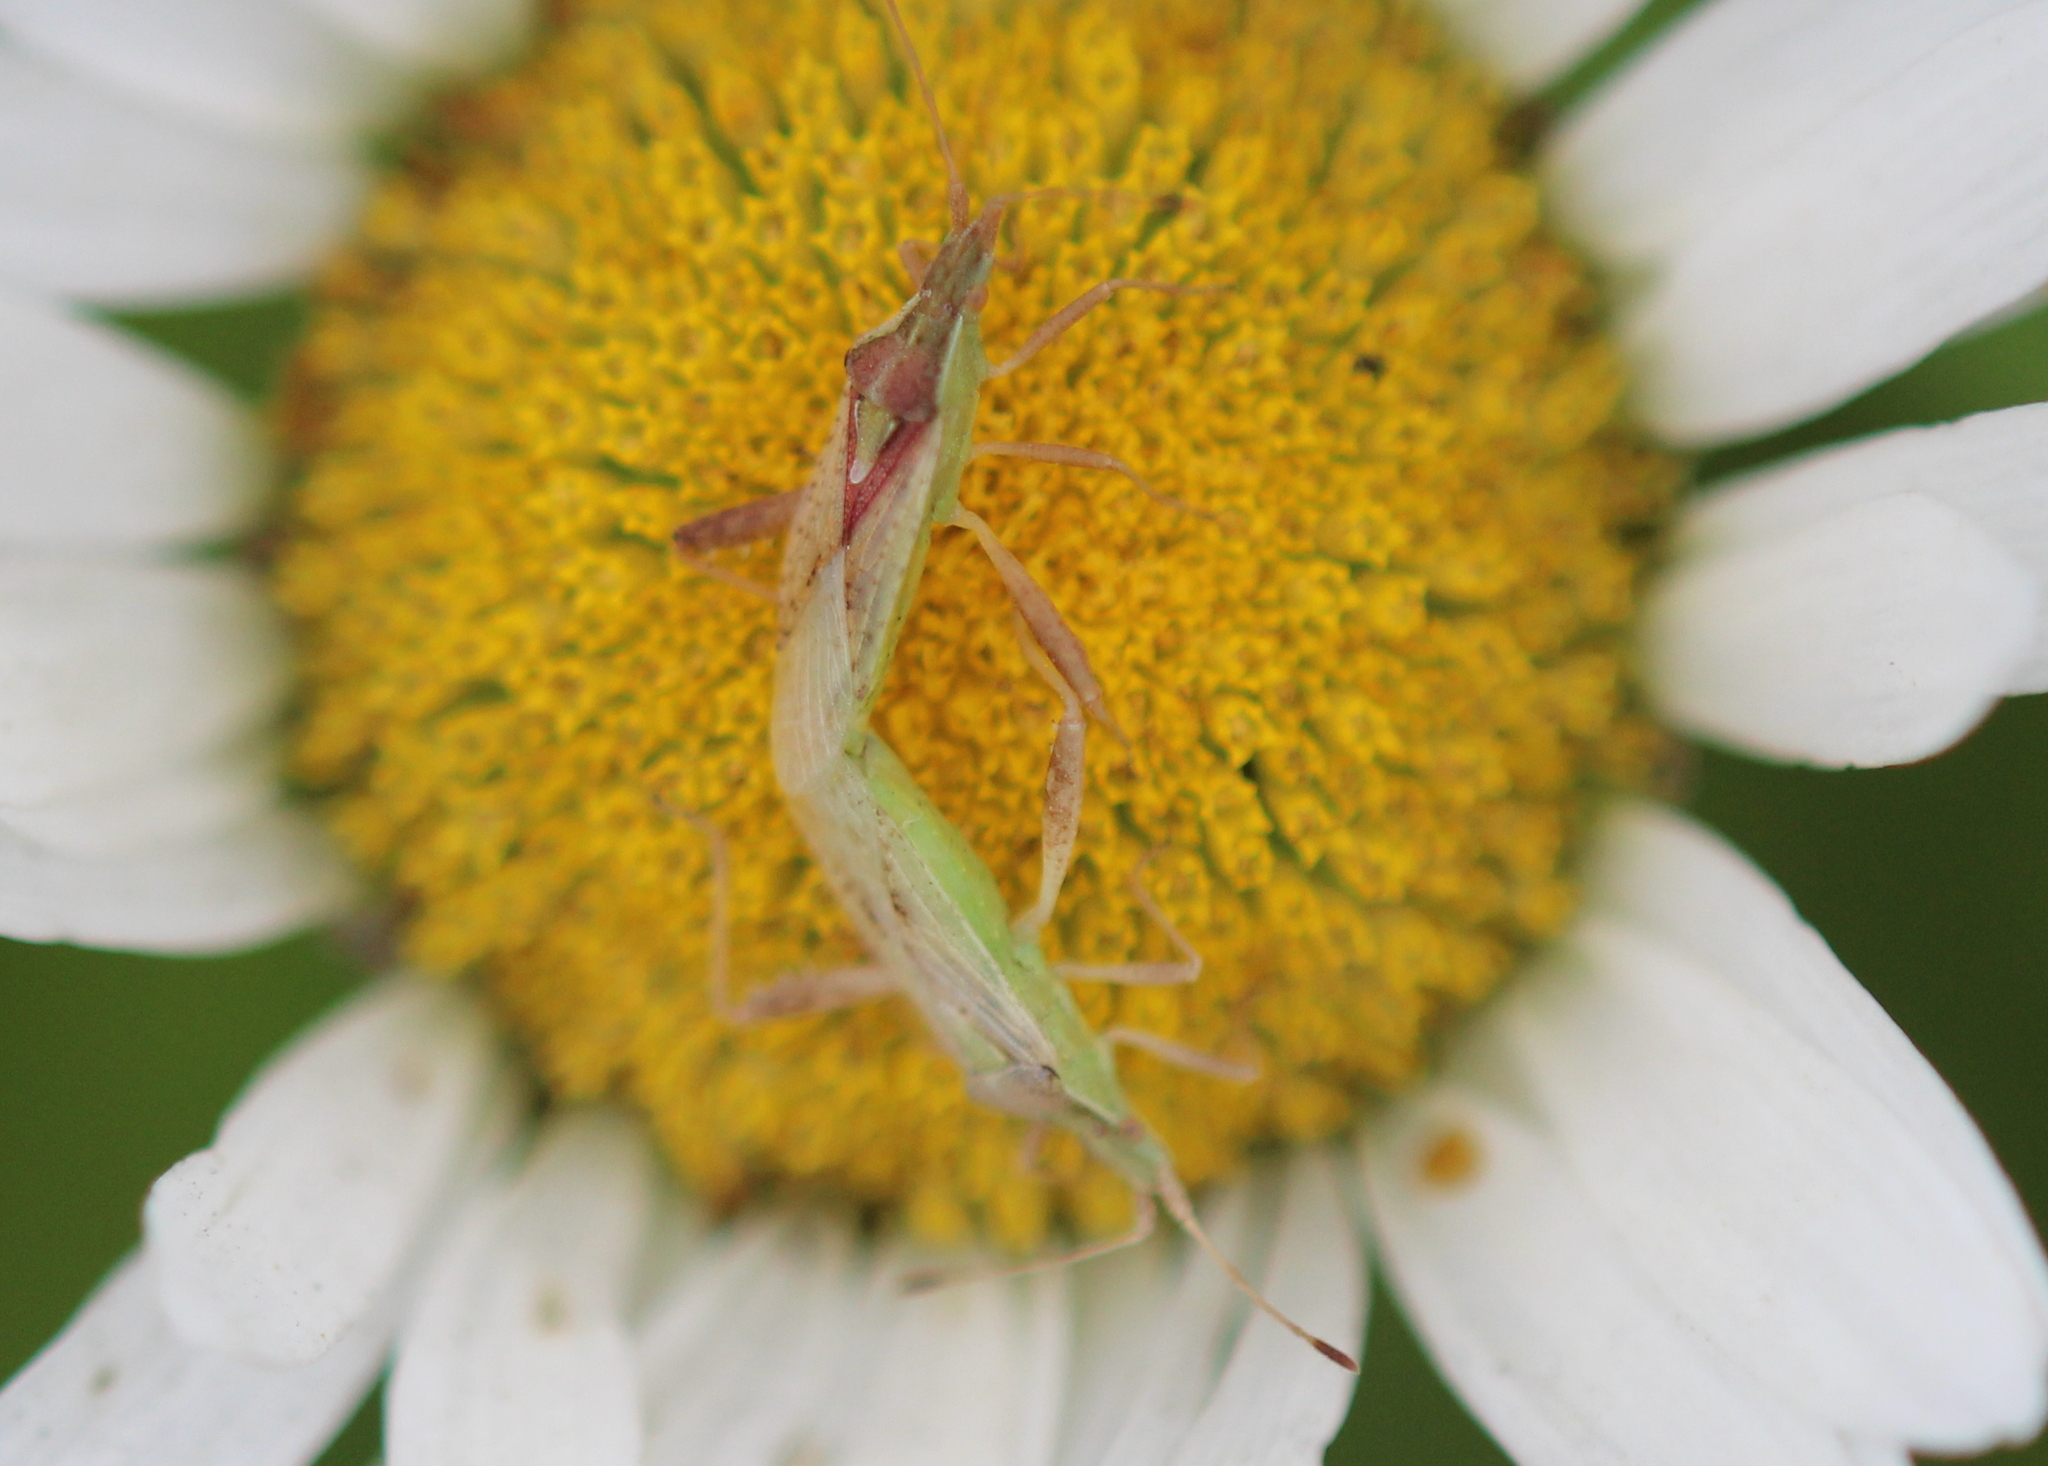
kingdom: Animalia
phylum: Arthropoda
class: Insecta
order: Hemiptera
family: Rhopalidae
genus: Harmostes
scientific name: Harmostes reflexulus
